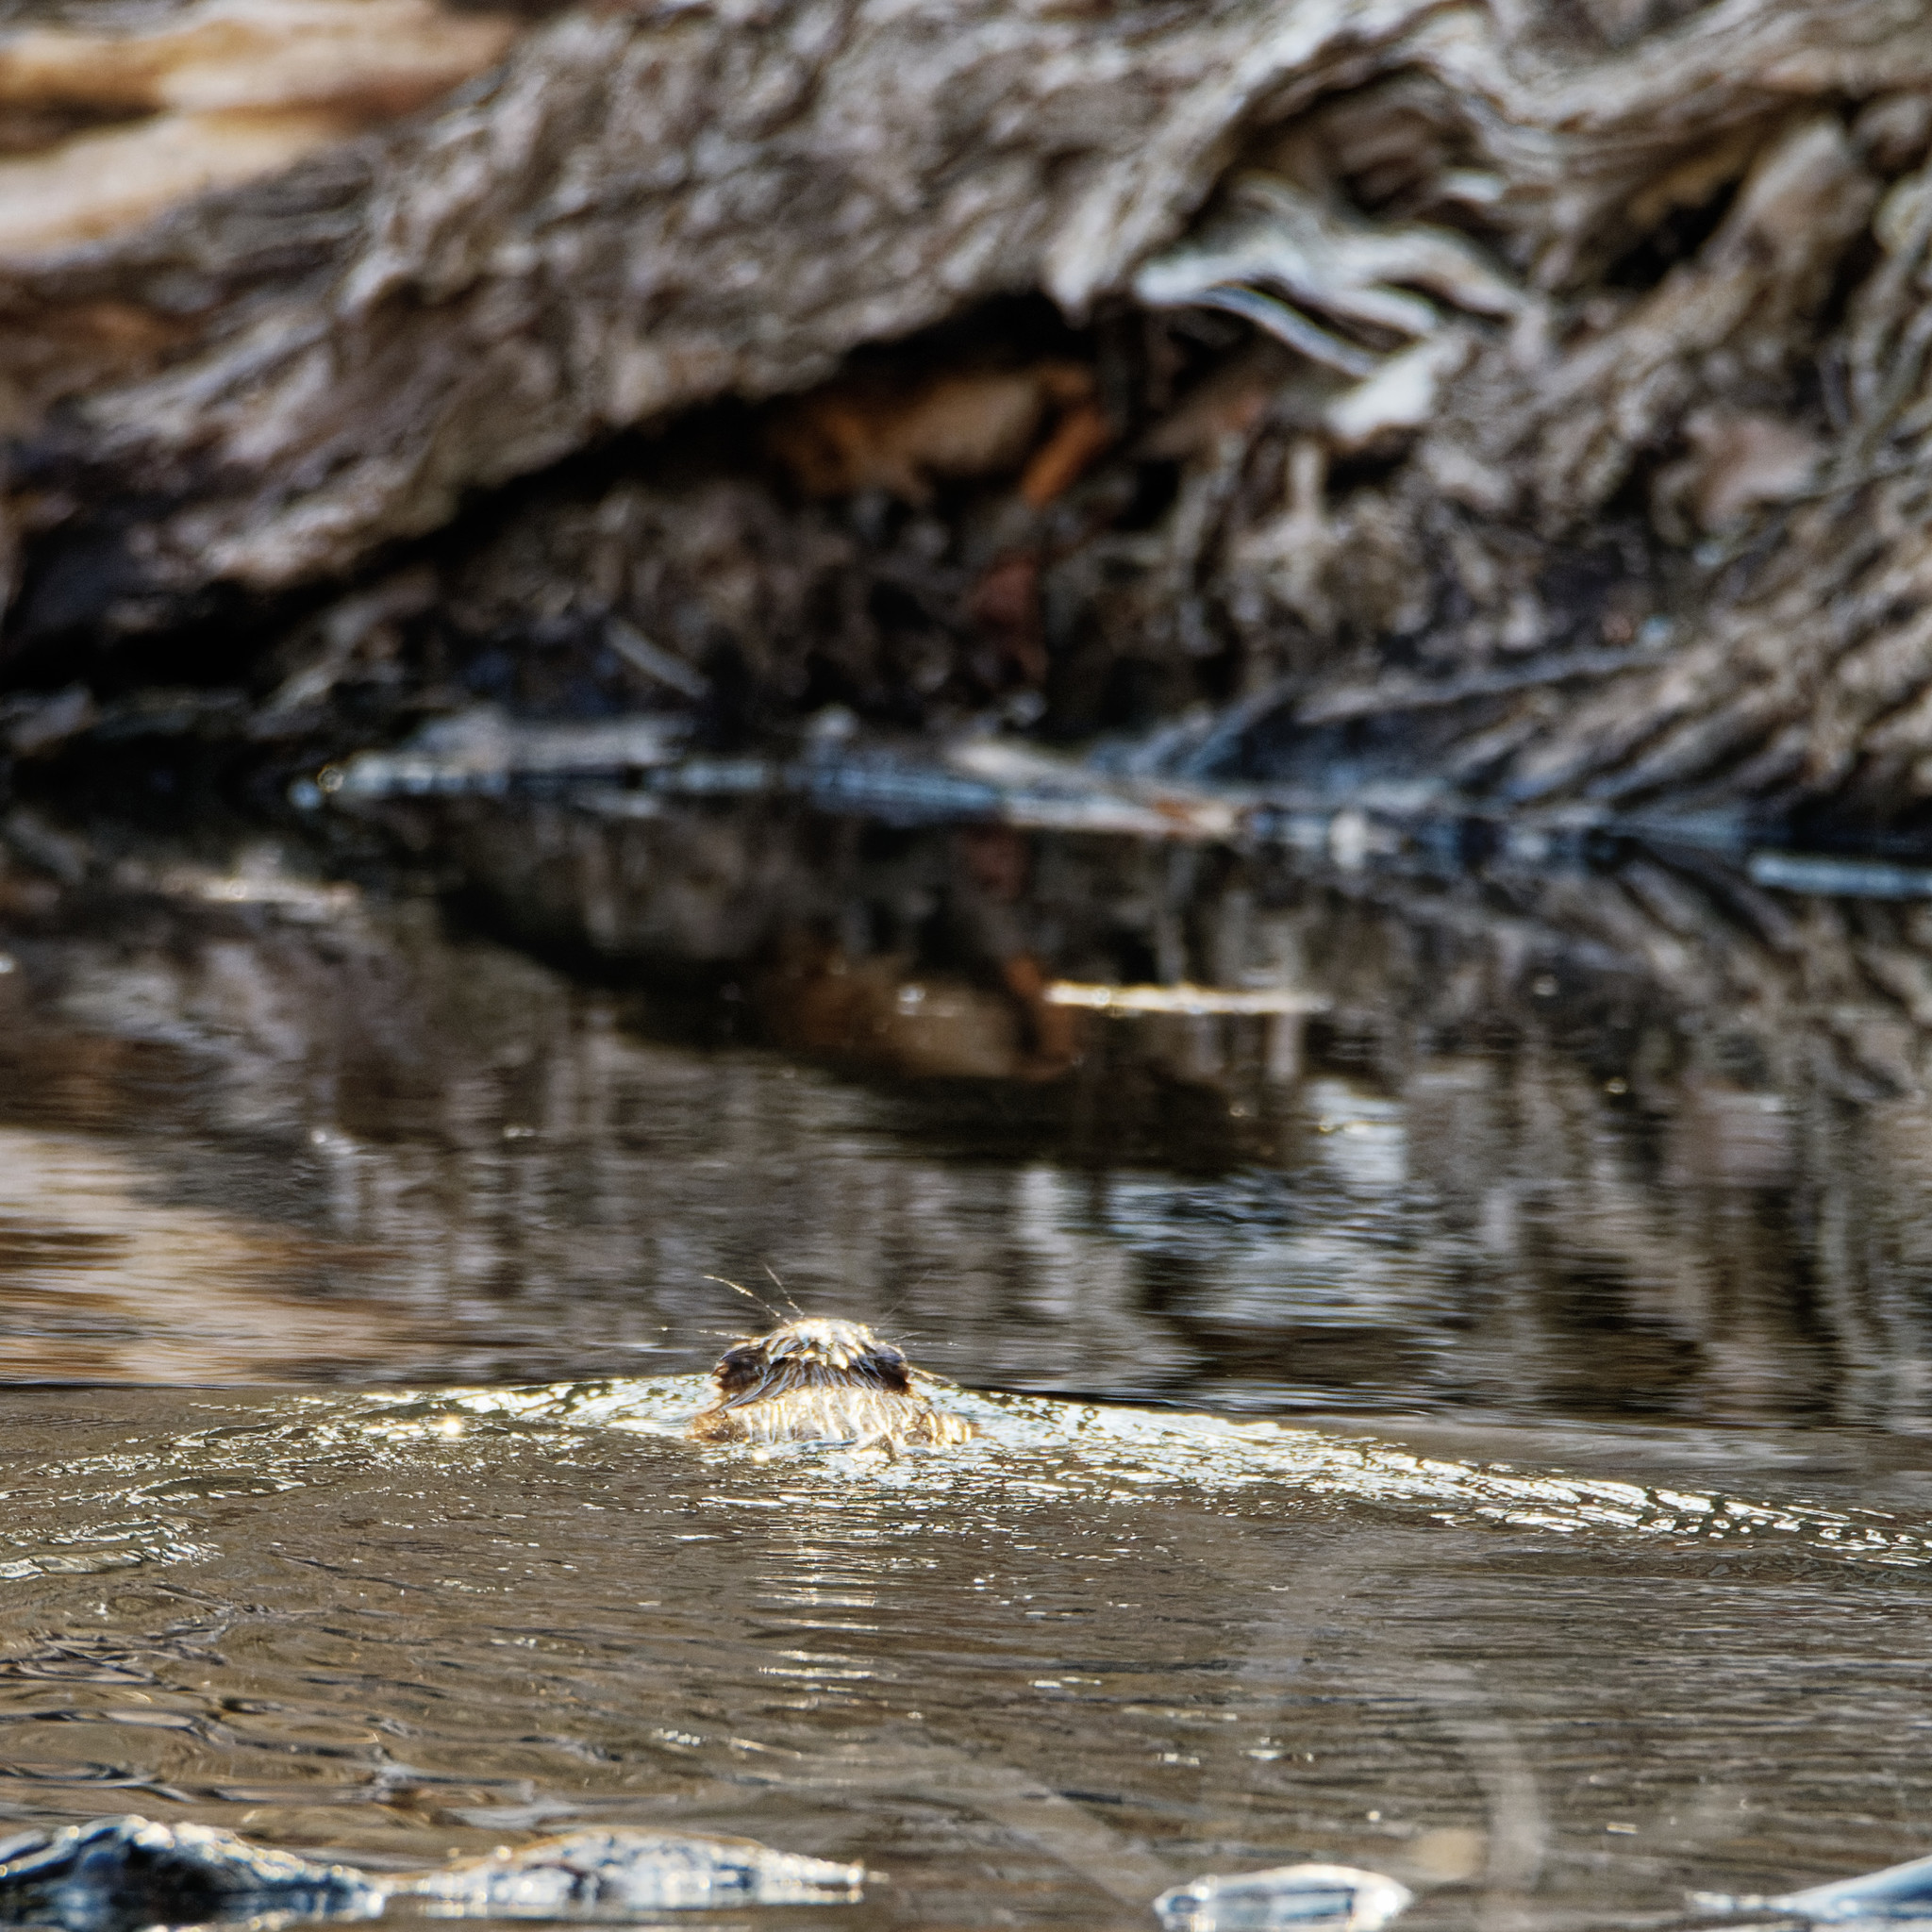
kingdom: Animalia
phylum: Chordata
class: Mammalia
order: Rodentia
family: Cricetidae
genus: Ondatra
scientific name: Ondatra zibethicus
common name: Muskrat
